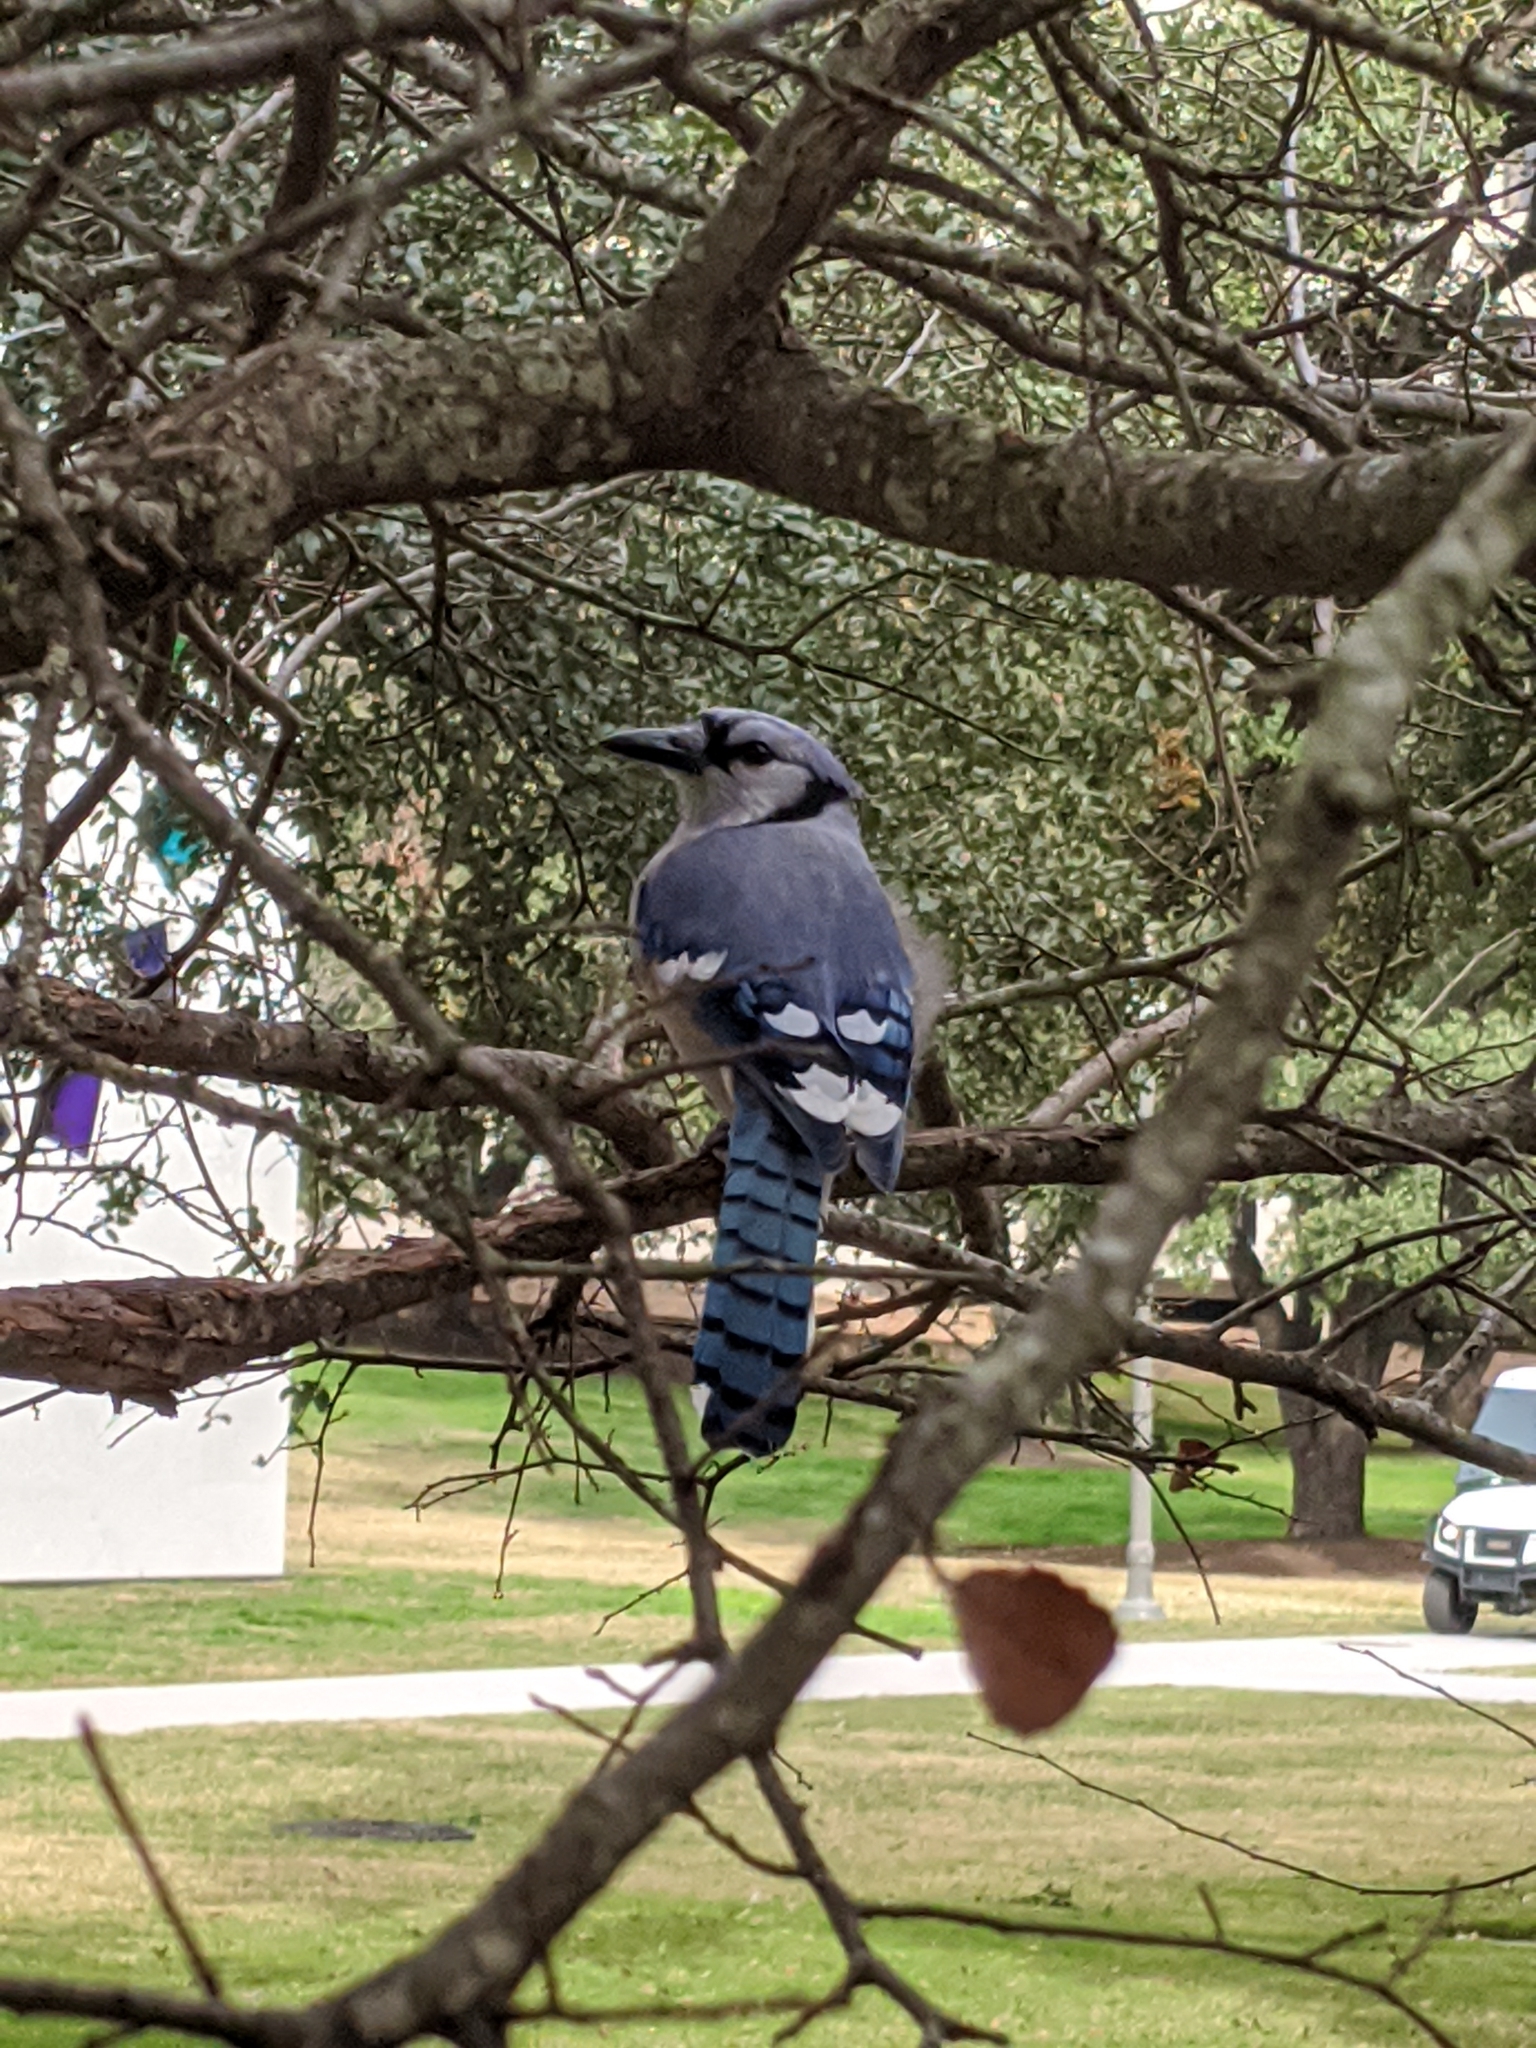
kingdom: Animalia
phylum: Chordata
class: Aves
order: Passeriformes
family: Corvidae
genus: Cyanocitta
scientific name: Cyanocitta cristata
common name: Blue jay
